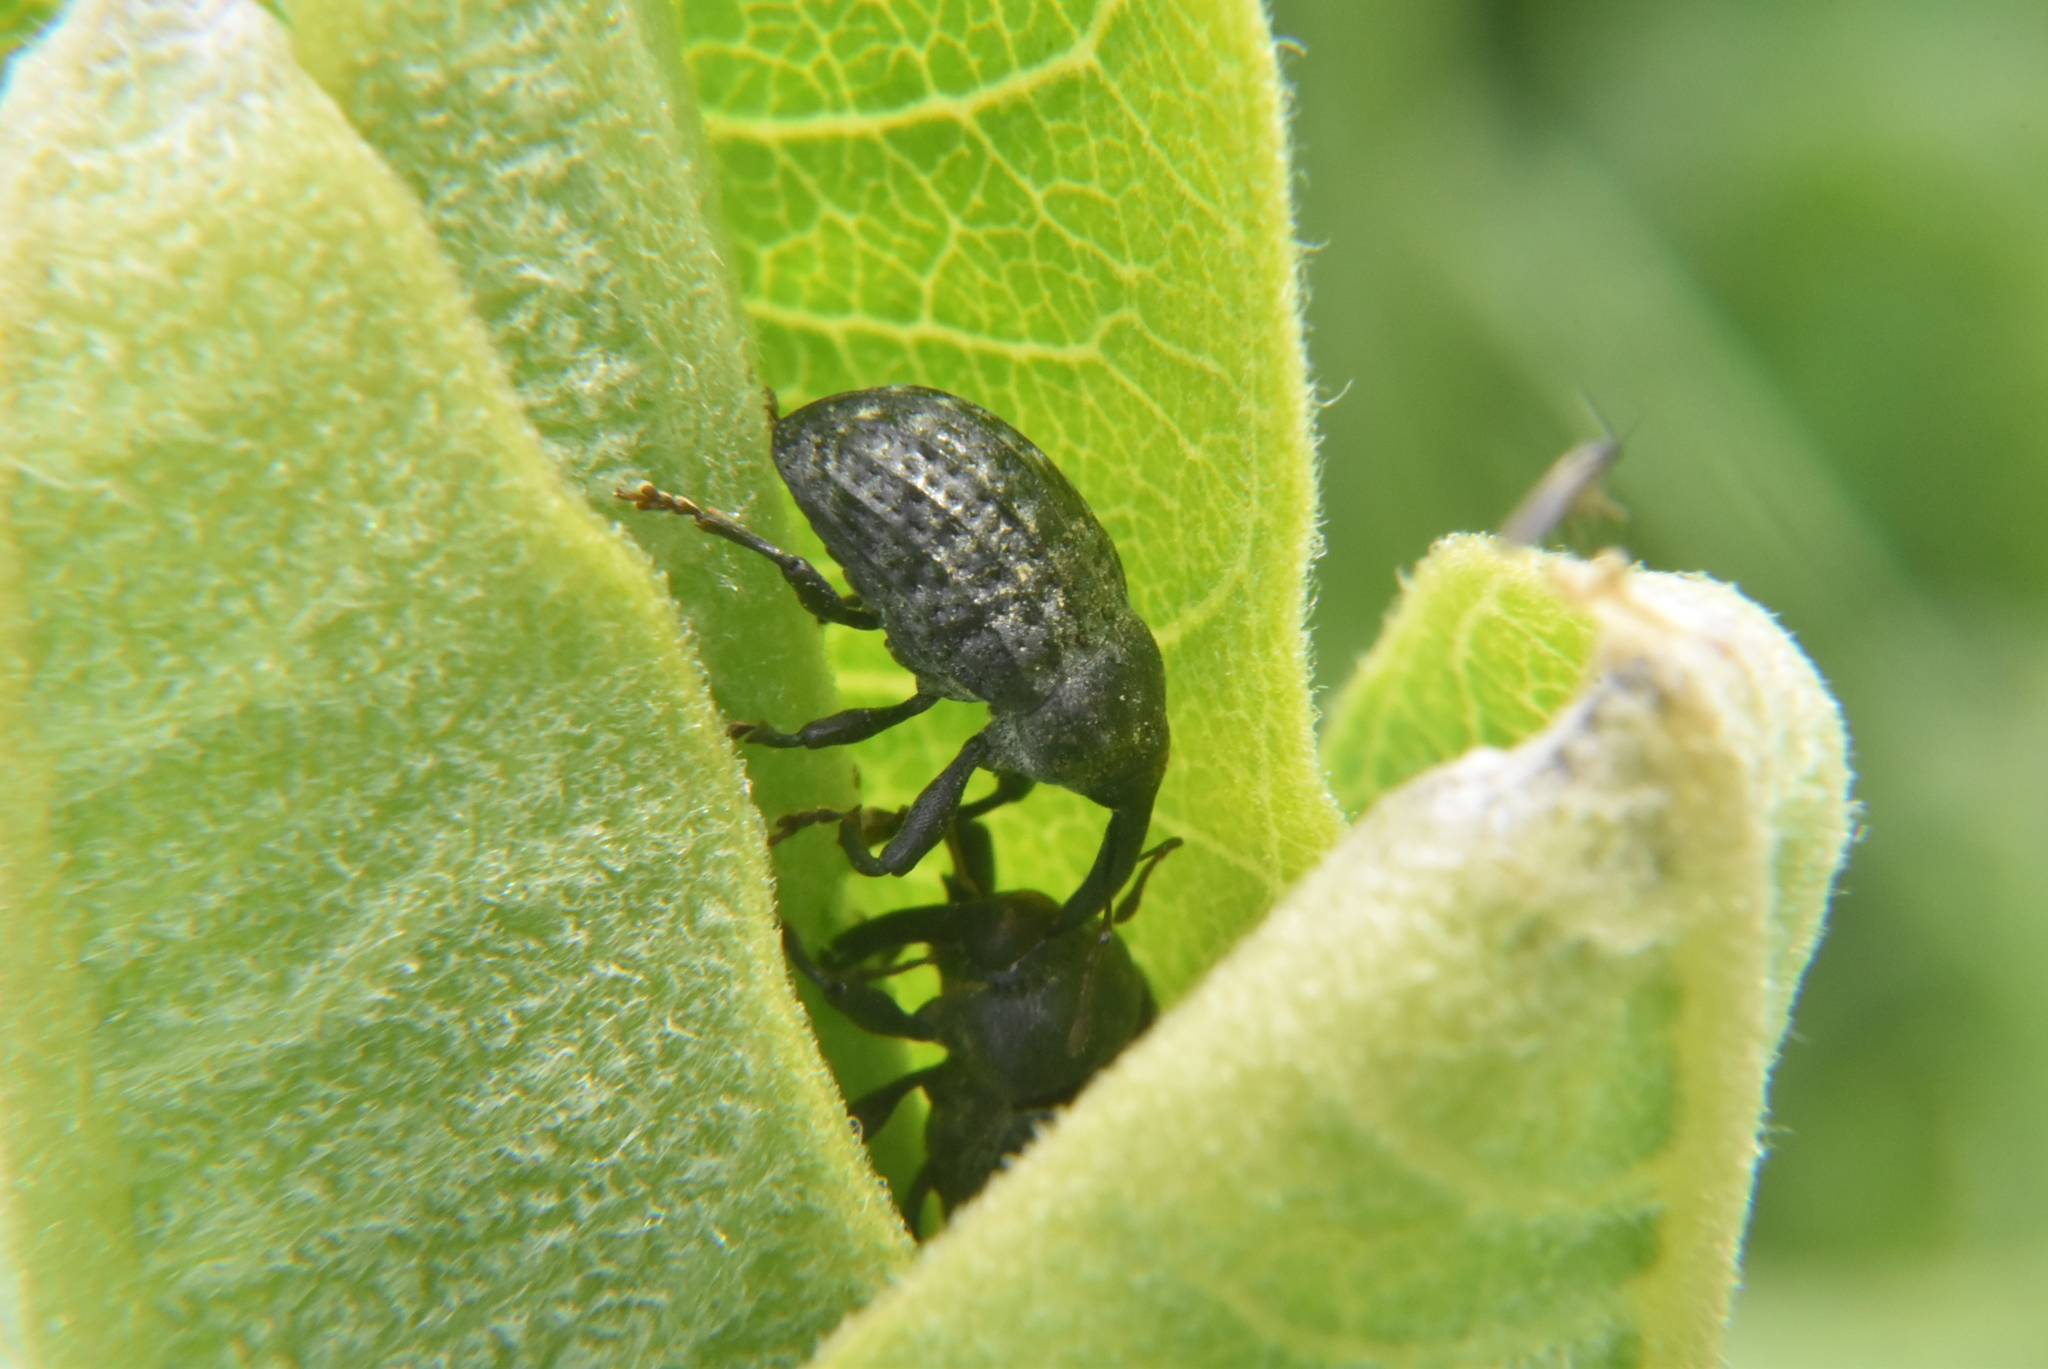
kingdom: Animalia
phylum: Arthropoda
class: Insecta
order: Coleoptera
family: Curculionidae
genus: Rhyssomatus
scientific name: Rhyssomatus lineaticollis
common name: Milkweed stem weevil
